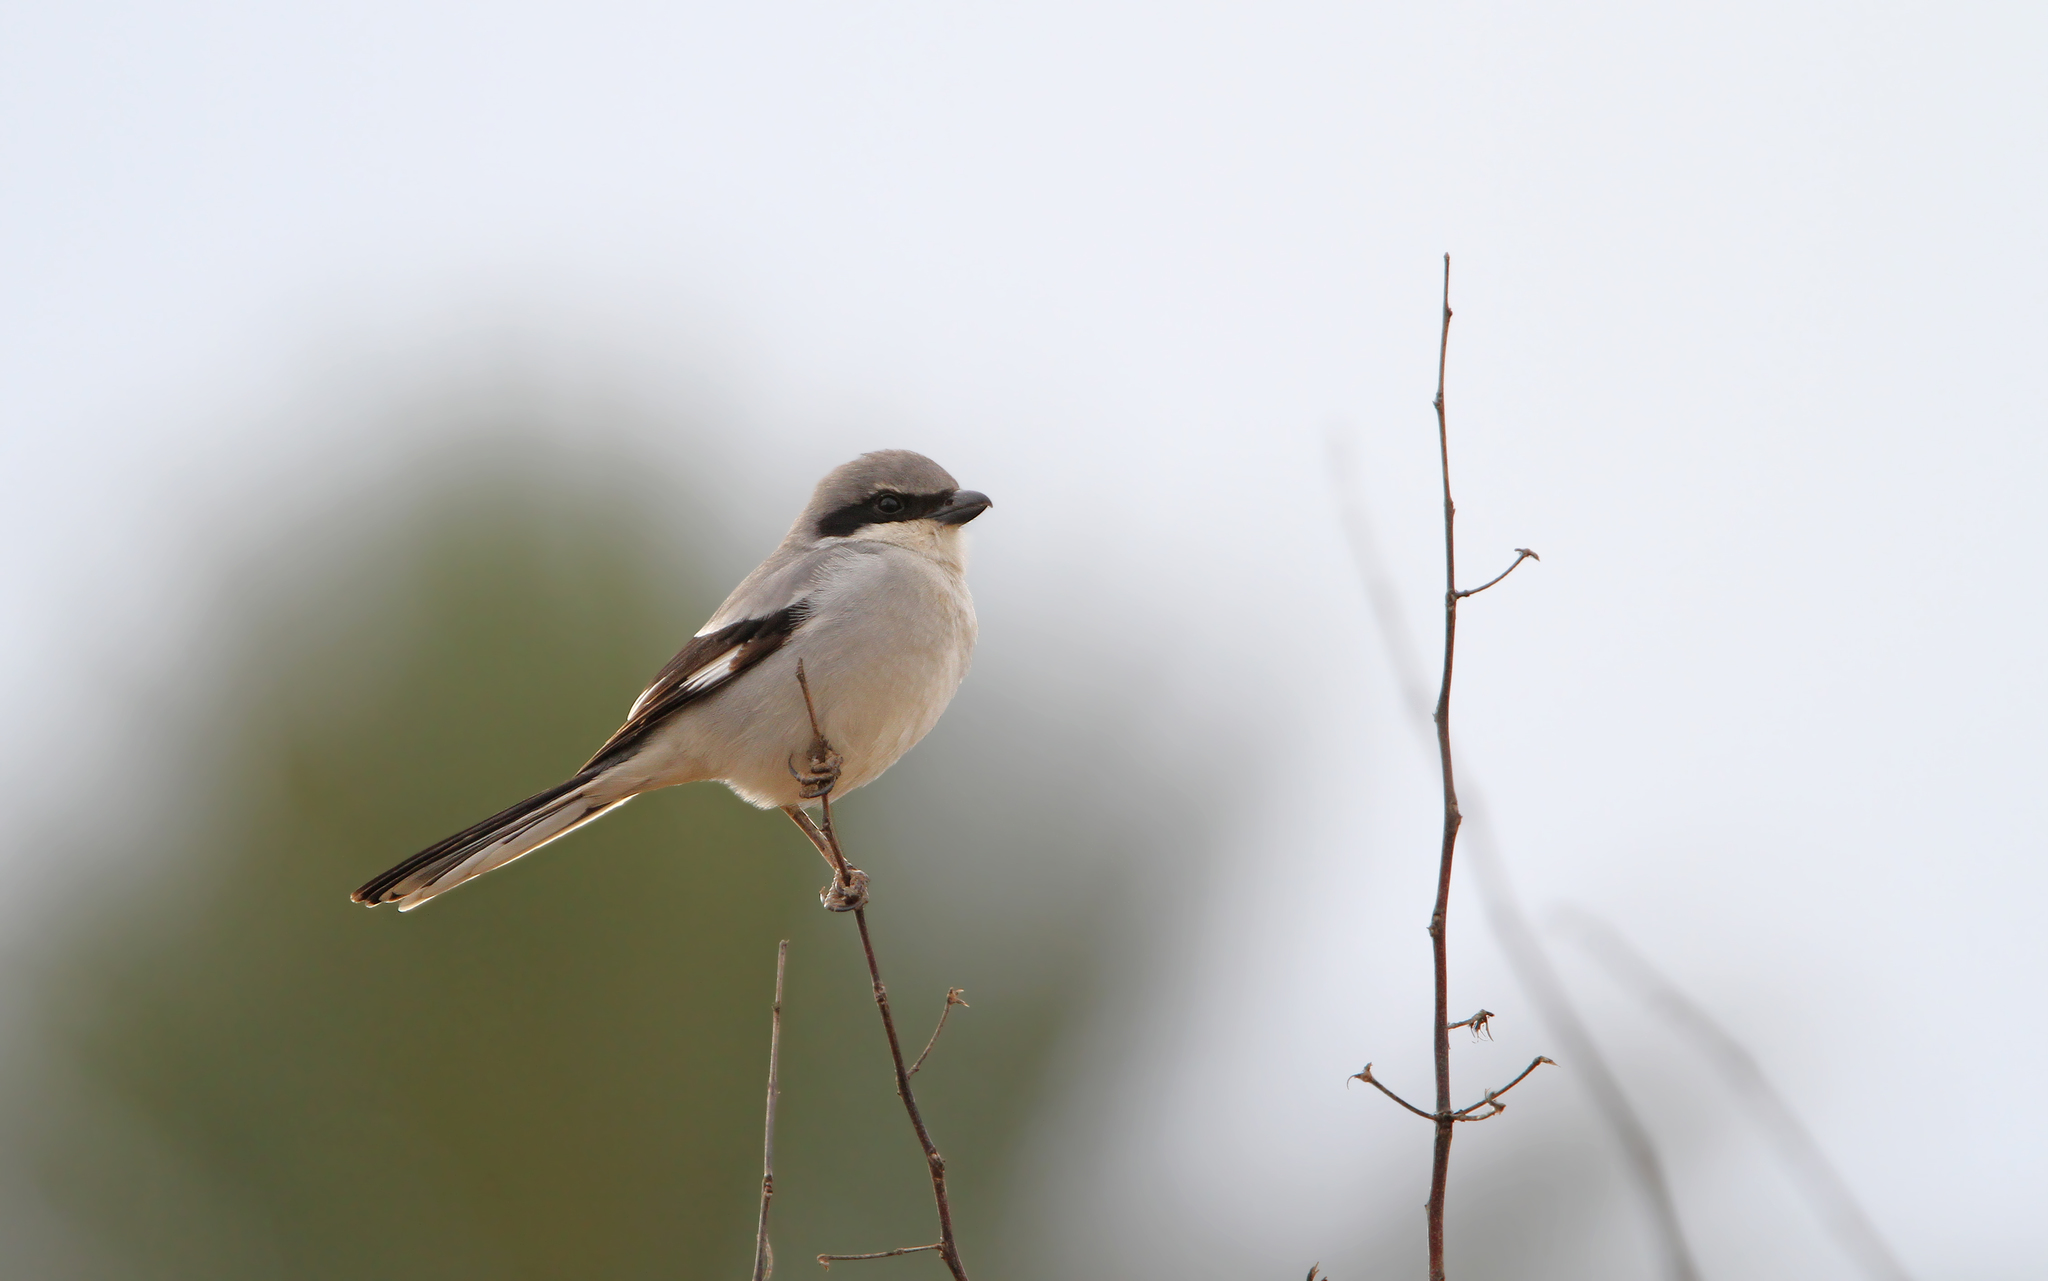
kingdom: Animalia
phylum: Chordata
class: Aves
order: Passeriformes
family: Laniidae
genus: Lanius
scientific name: Lanius excubitor
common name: Great grey shrike
